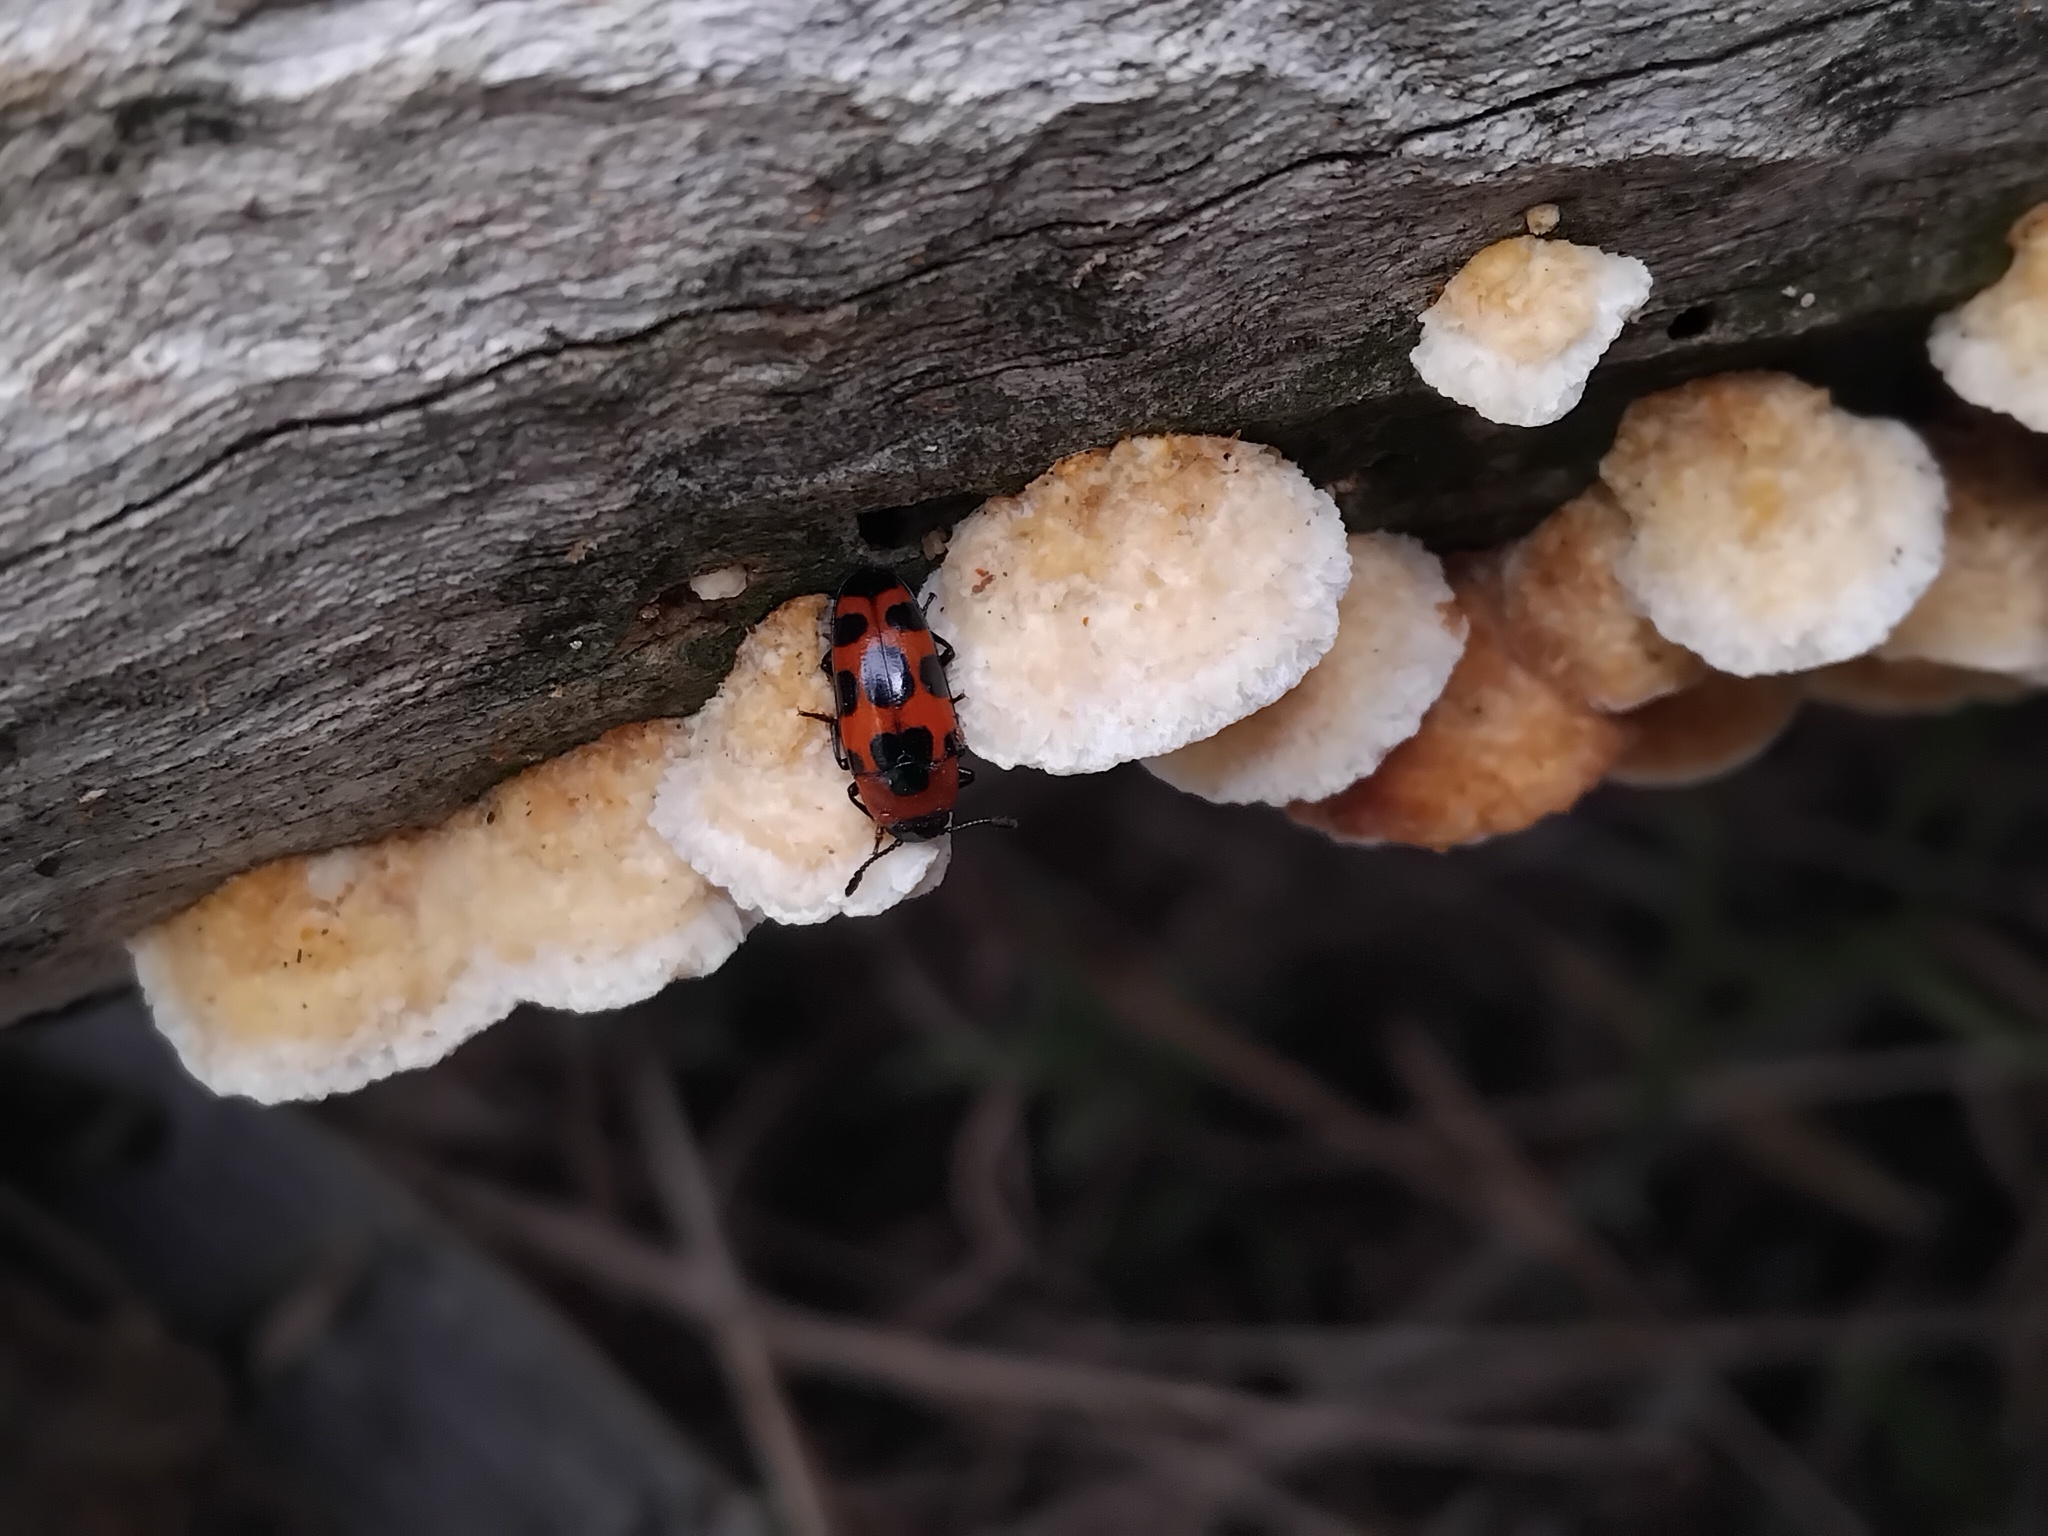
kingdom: Animalia
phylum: Arthropoda
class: Insecta
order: Coleoptera
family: Erotylidae
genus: Episcaphula
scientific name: Episcaphula australis
